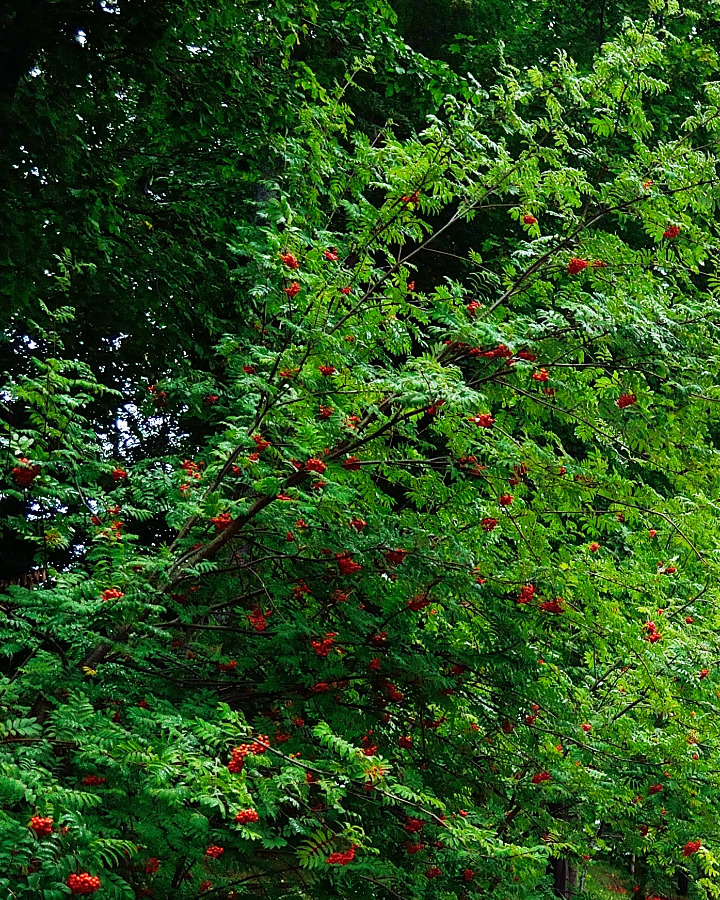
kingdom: Plantae
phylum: Tracheophyta
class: Magnoliopsida
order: Rosales
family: Rosaceae
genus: Sorbus
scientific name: Sorbus aucuparia
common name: Rowan
